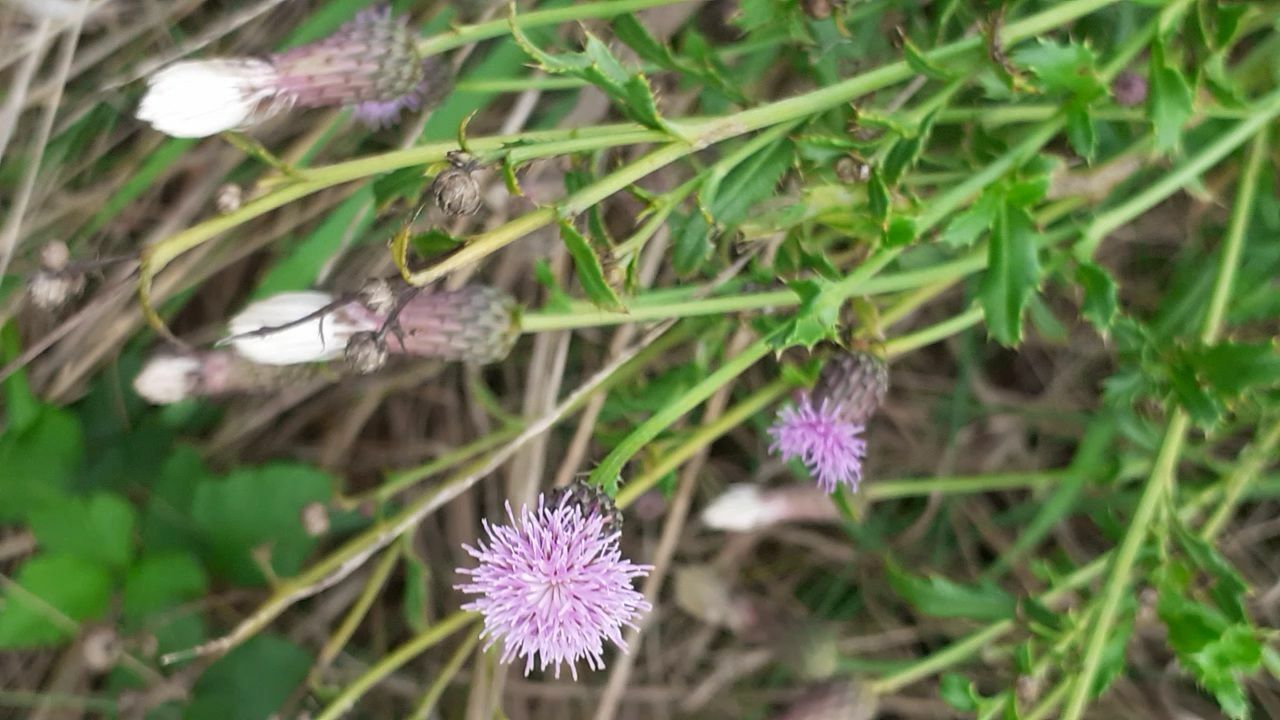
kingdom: Plantae
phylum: Tracheophyta
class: Magnoliopsida
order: Asterales
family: Asteraceae
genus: Cirsium
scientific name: Cirsium arvense
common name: Creeping thistle
